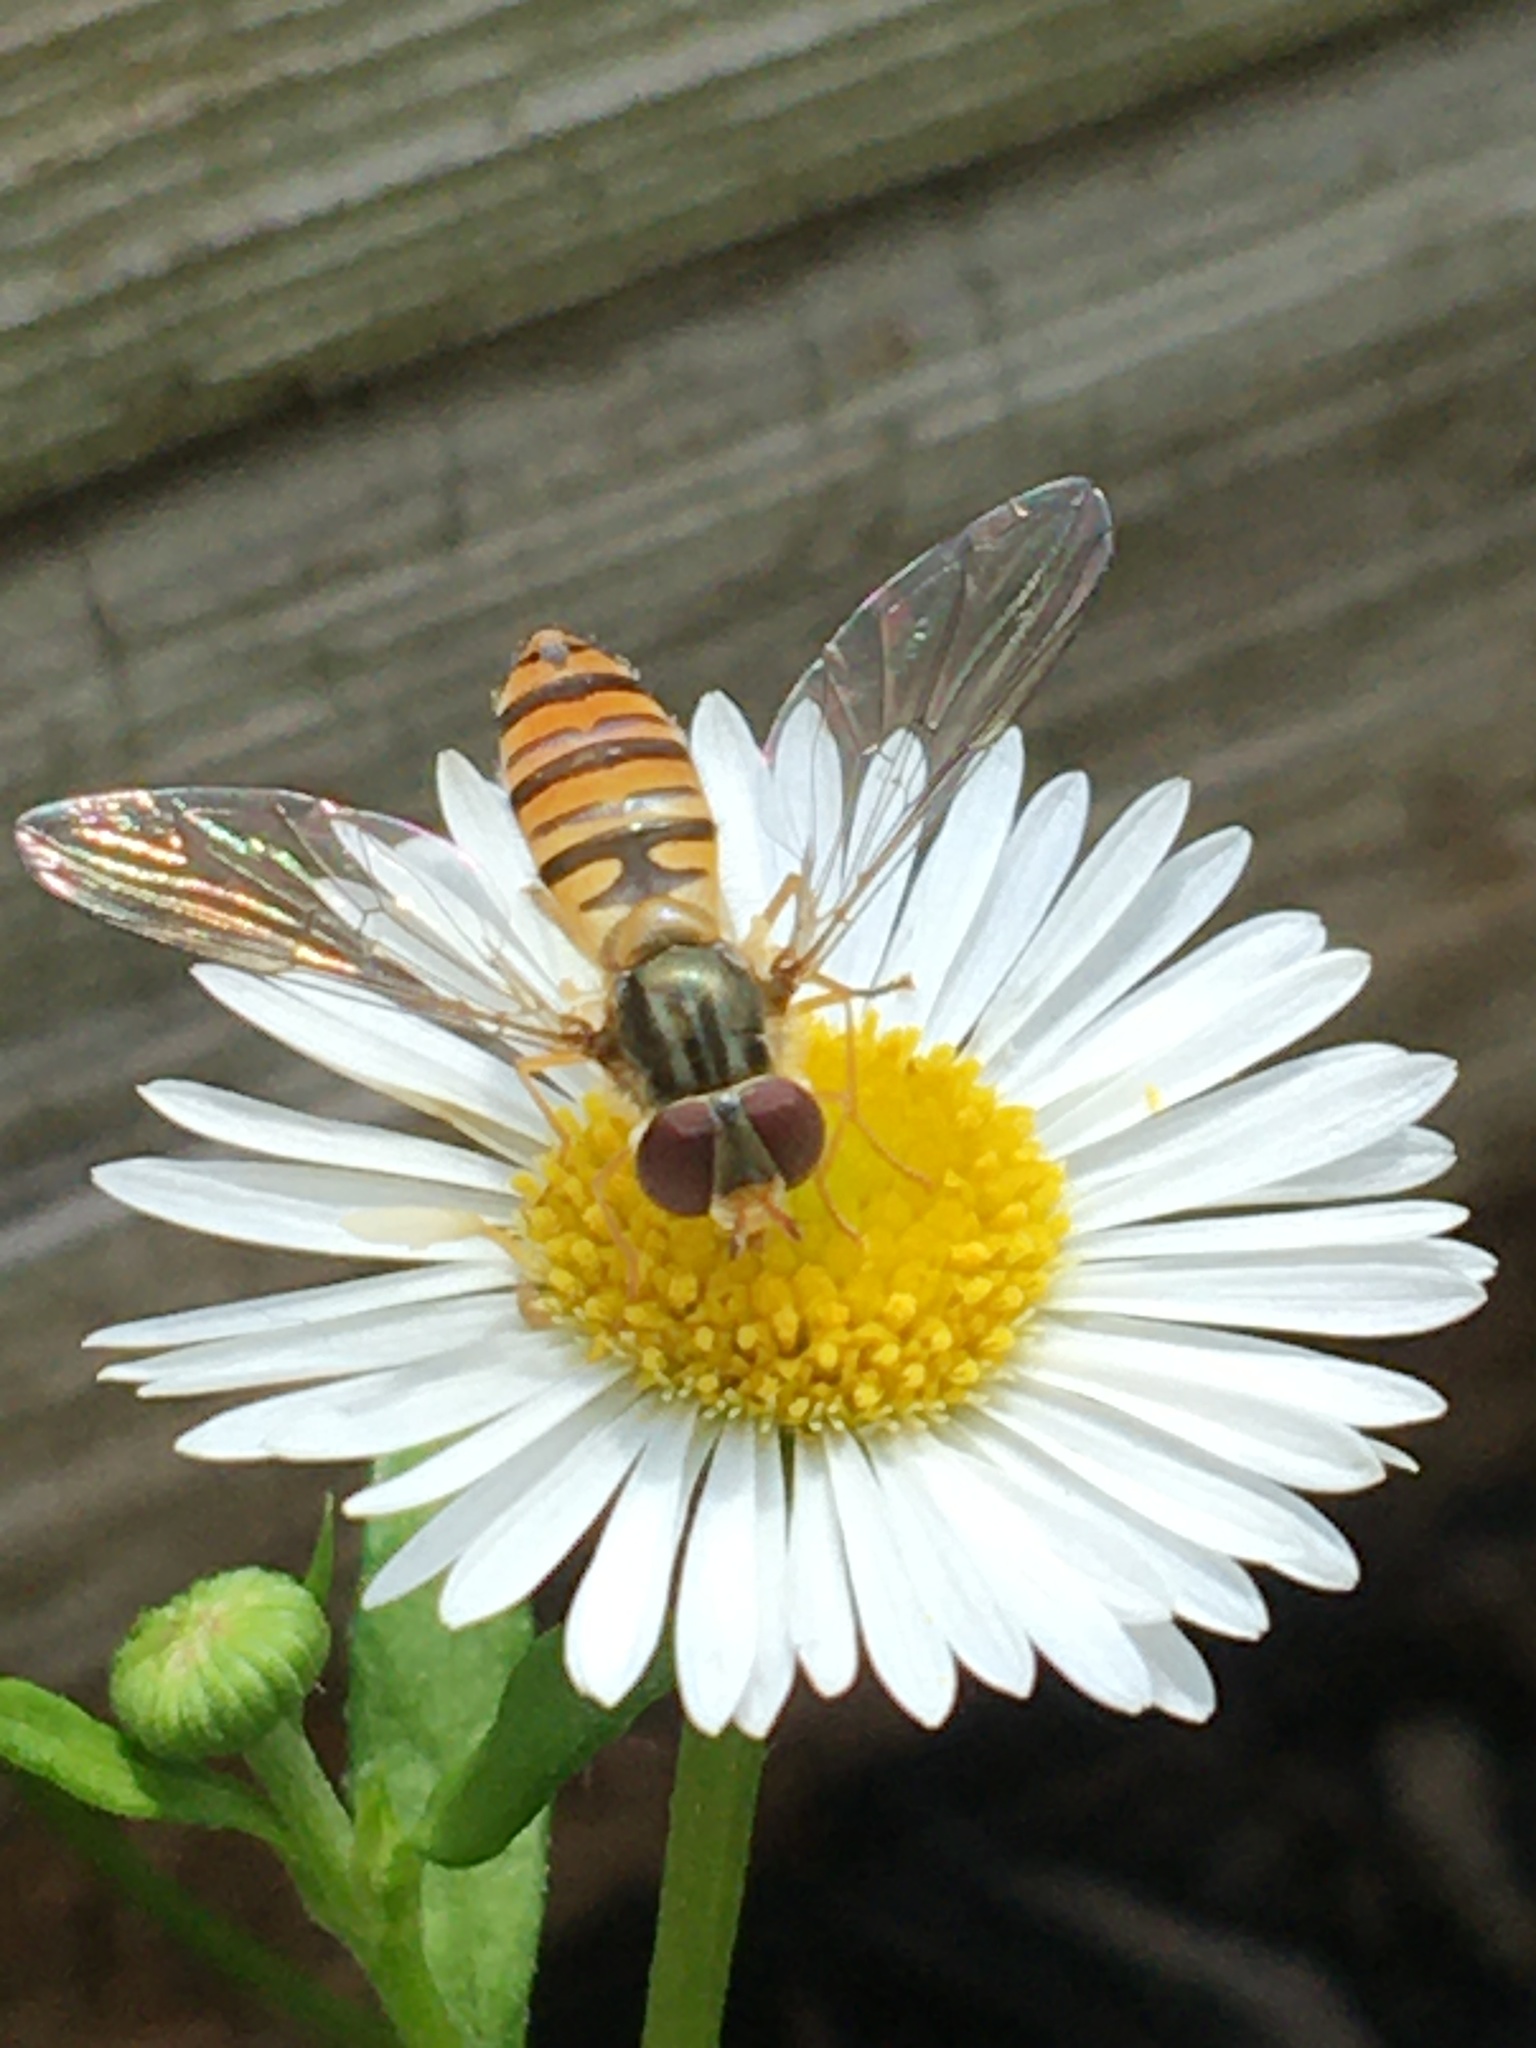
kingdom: Animalia
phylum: Arthropoda
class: Insecta
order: Diptera
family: Syrphidae
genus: Episyrphus
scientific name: Episyrphus balteatus
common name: Marmalade hoverfly
